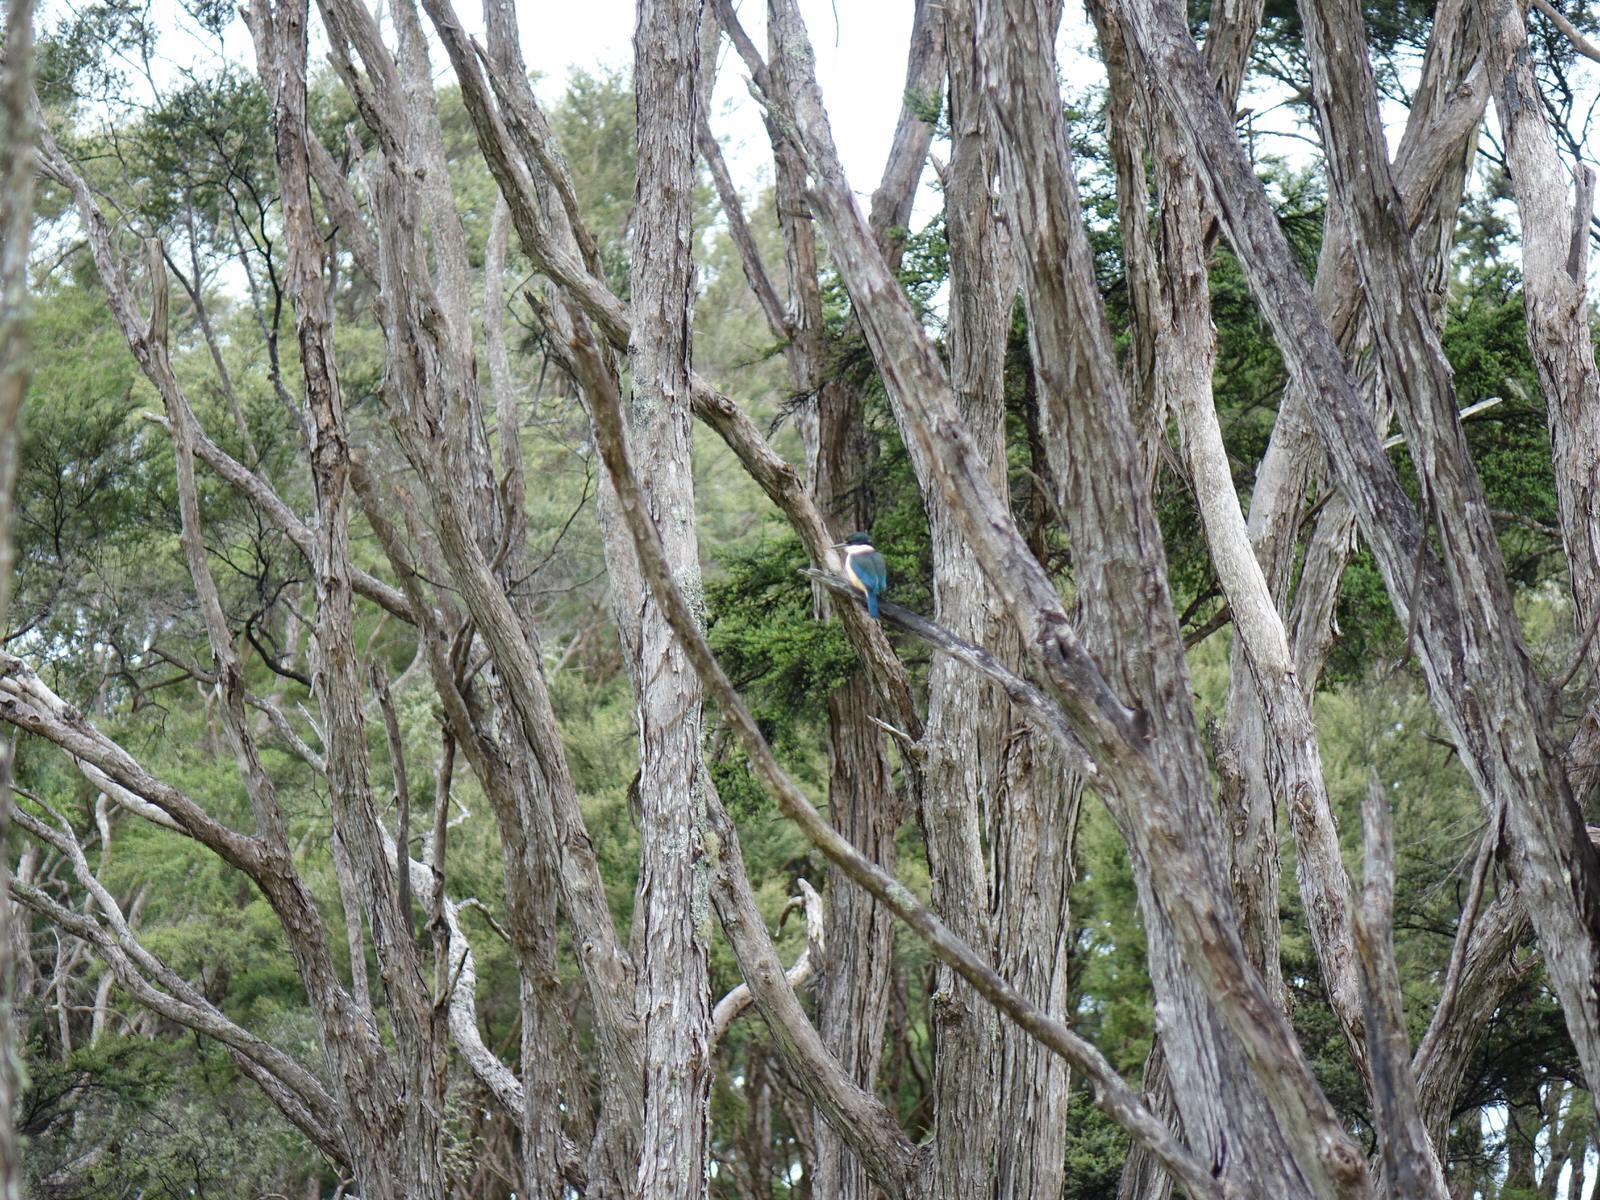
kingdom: Animalia
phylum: Chordata
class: Aves
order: Coraciiformes
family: Alcedinidae
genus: Todiramphus
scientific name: Todiramphus sanctus
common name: Sacred kingfisher
